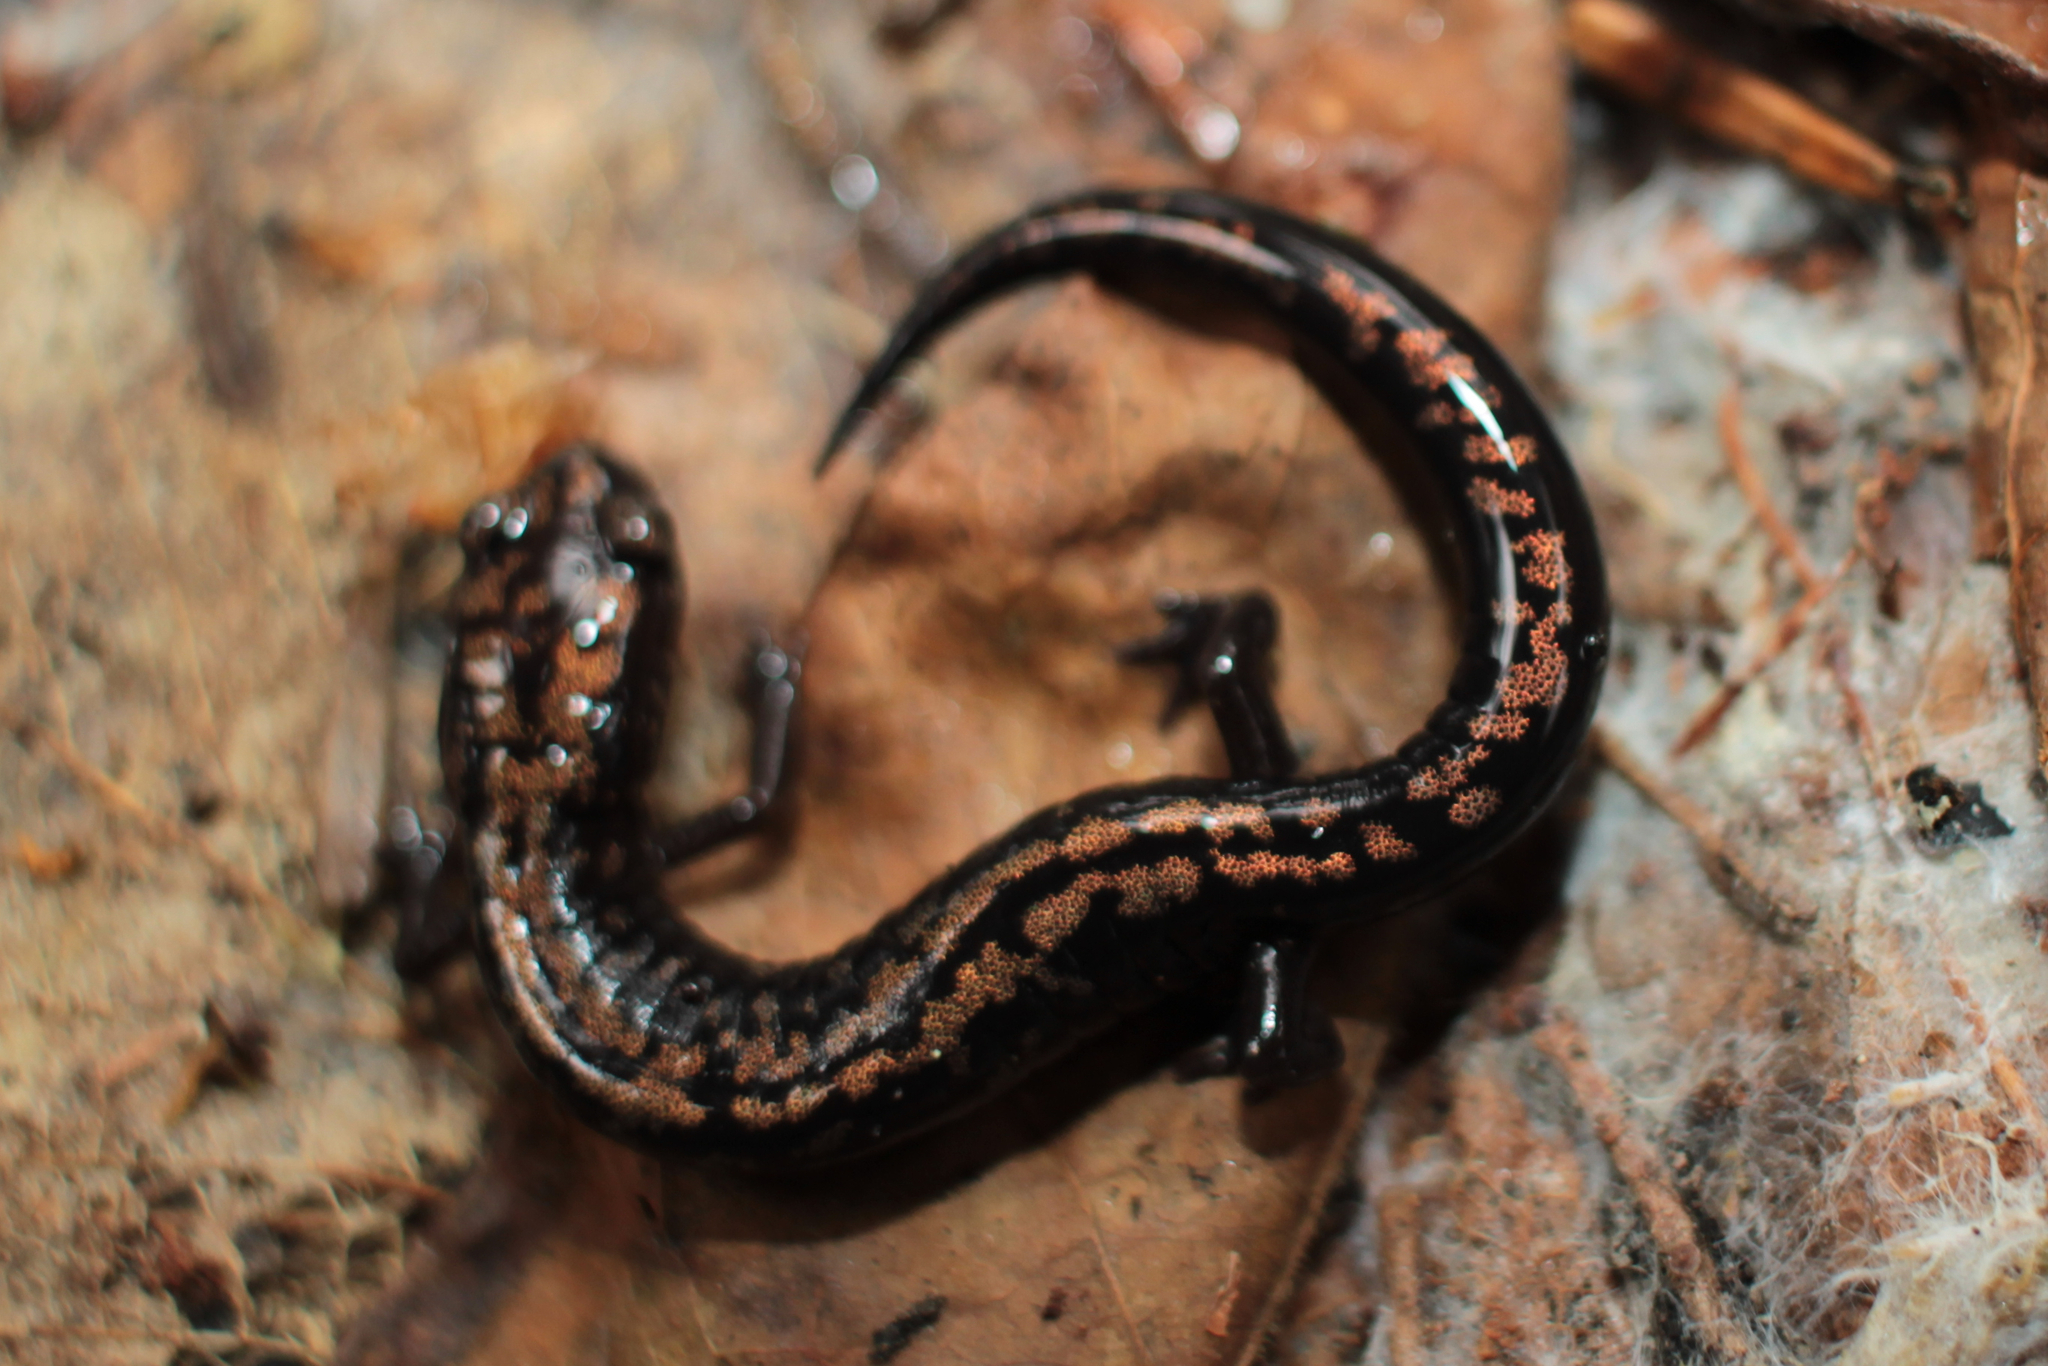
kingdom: Animalia
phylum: Chordata
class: Amphibia
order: Caudata
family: Plethodontidae
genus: Plethodon
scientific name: Plethodon welleri
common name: Weller's salamander
